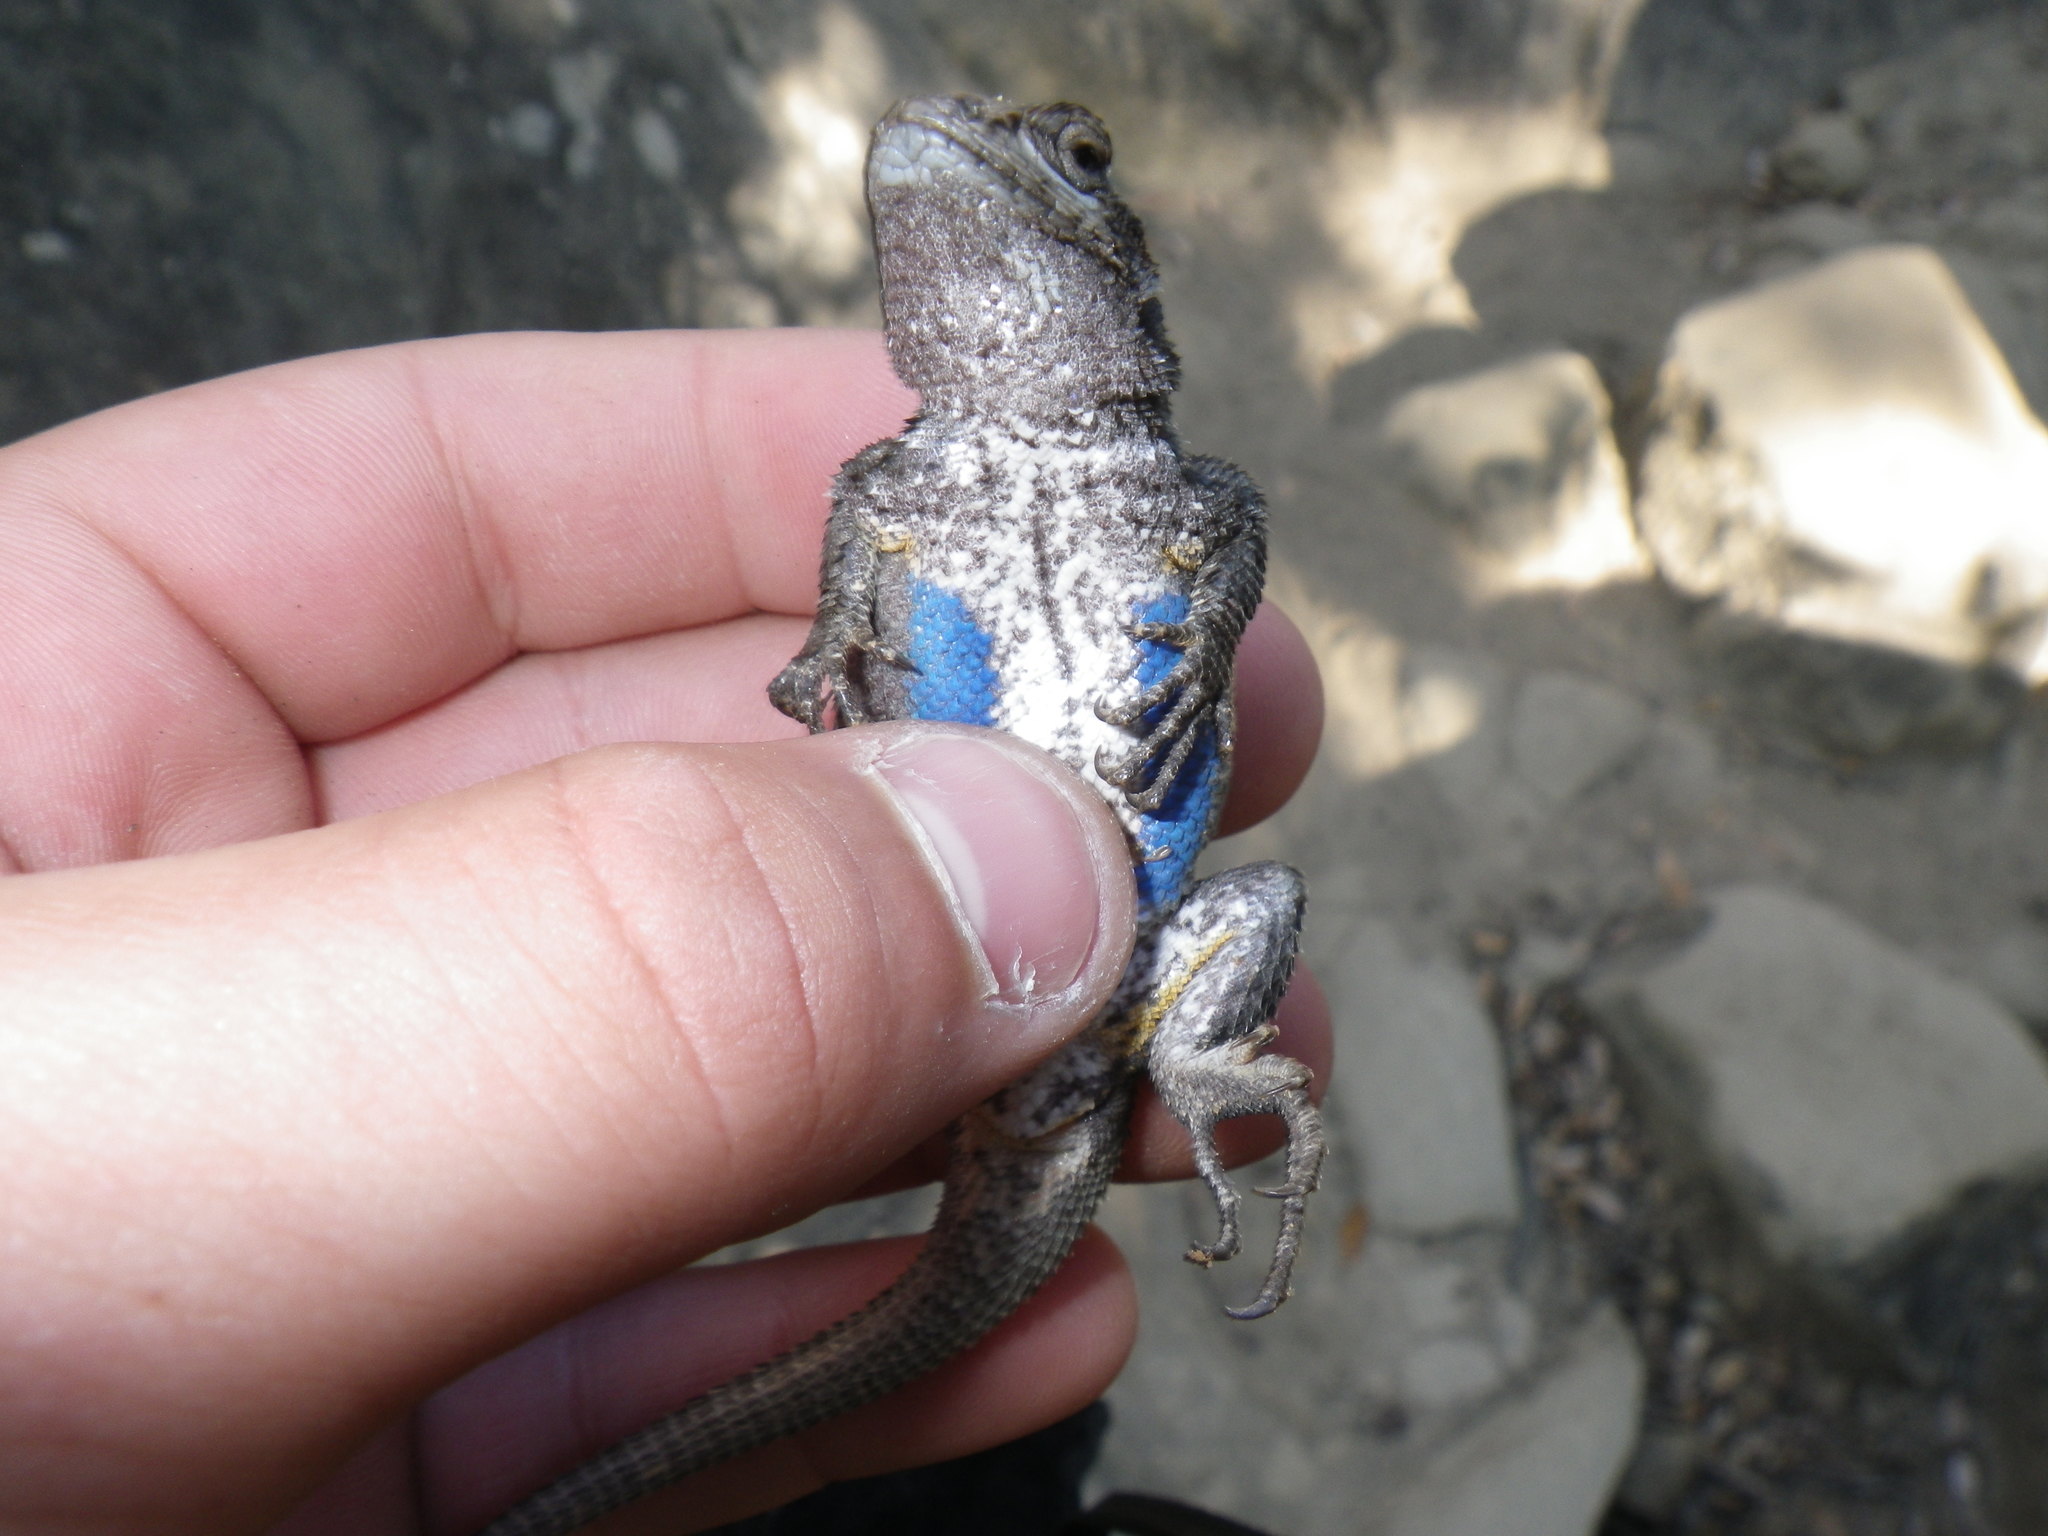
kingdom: Animalia
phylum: Chordata
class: Squamata
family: Phrynosomatidae
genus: Sceloporus
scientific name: Sceloporus occidentalis
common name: Western fence lizard
